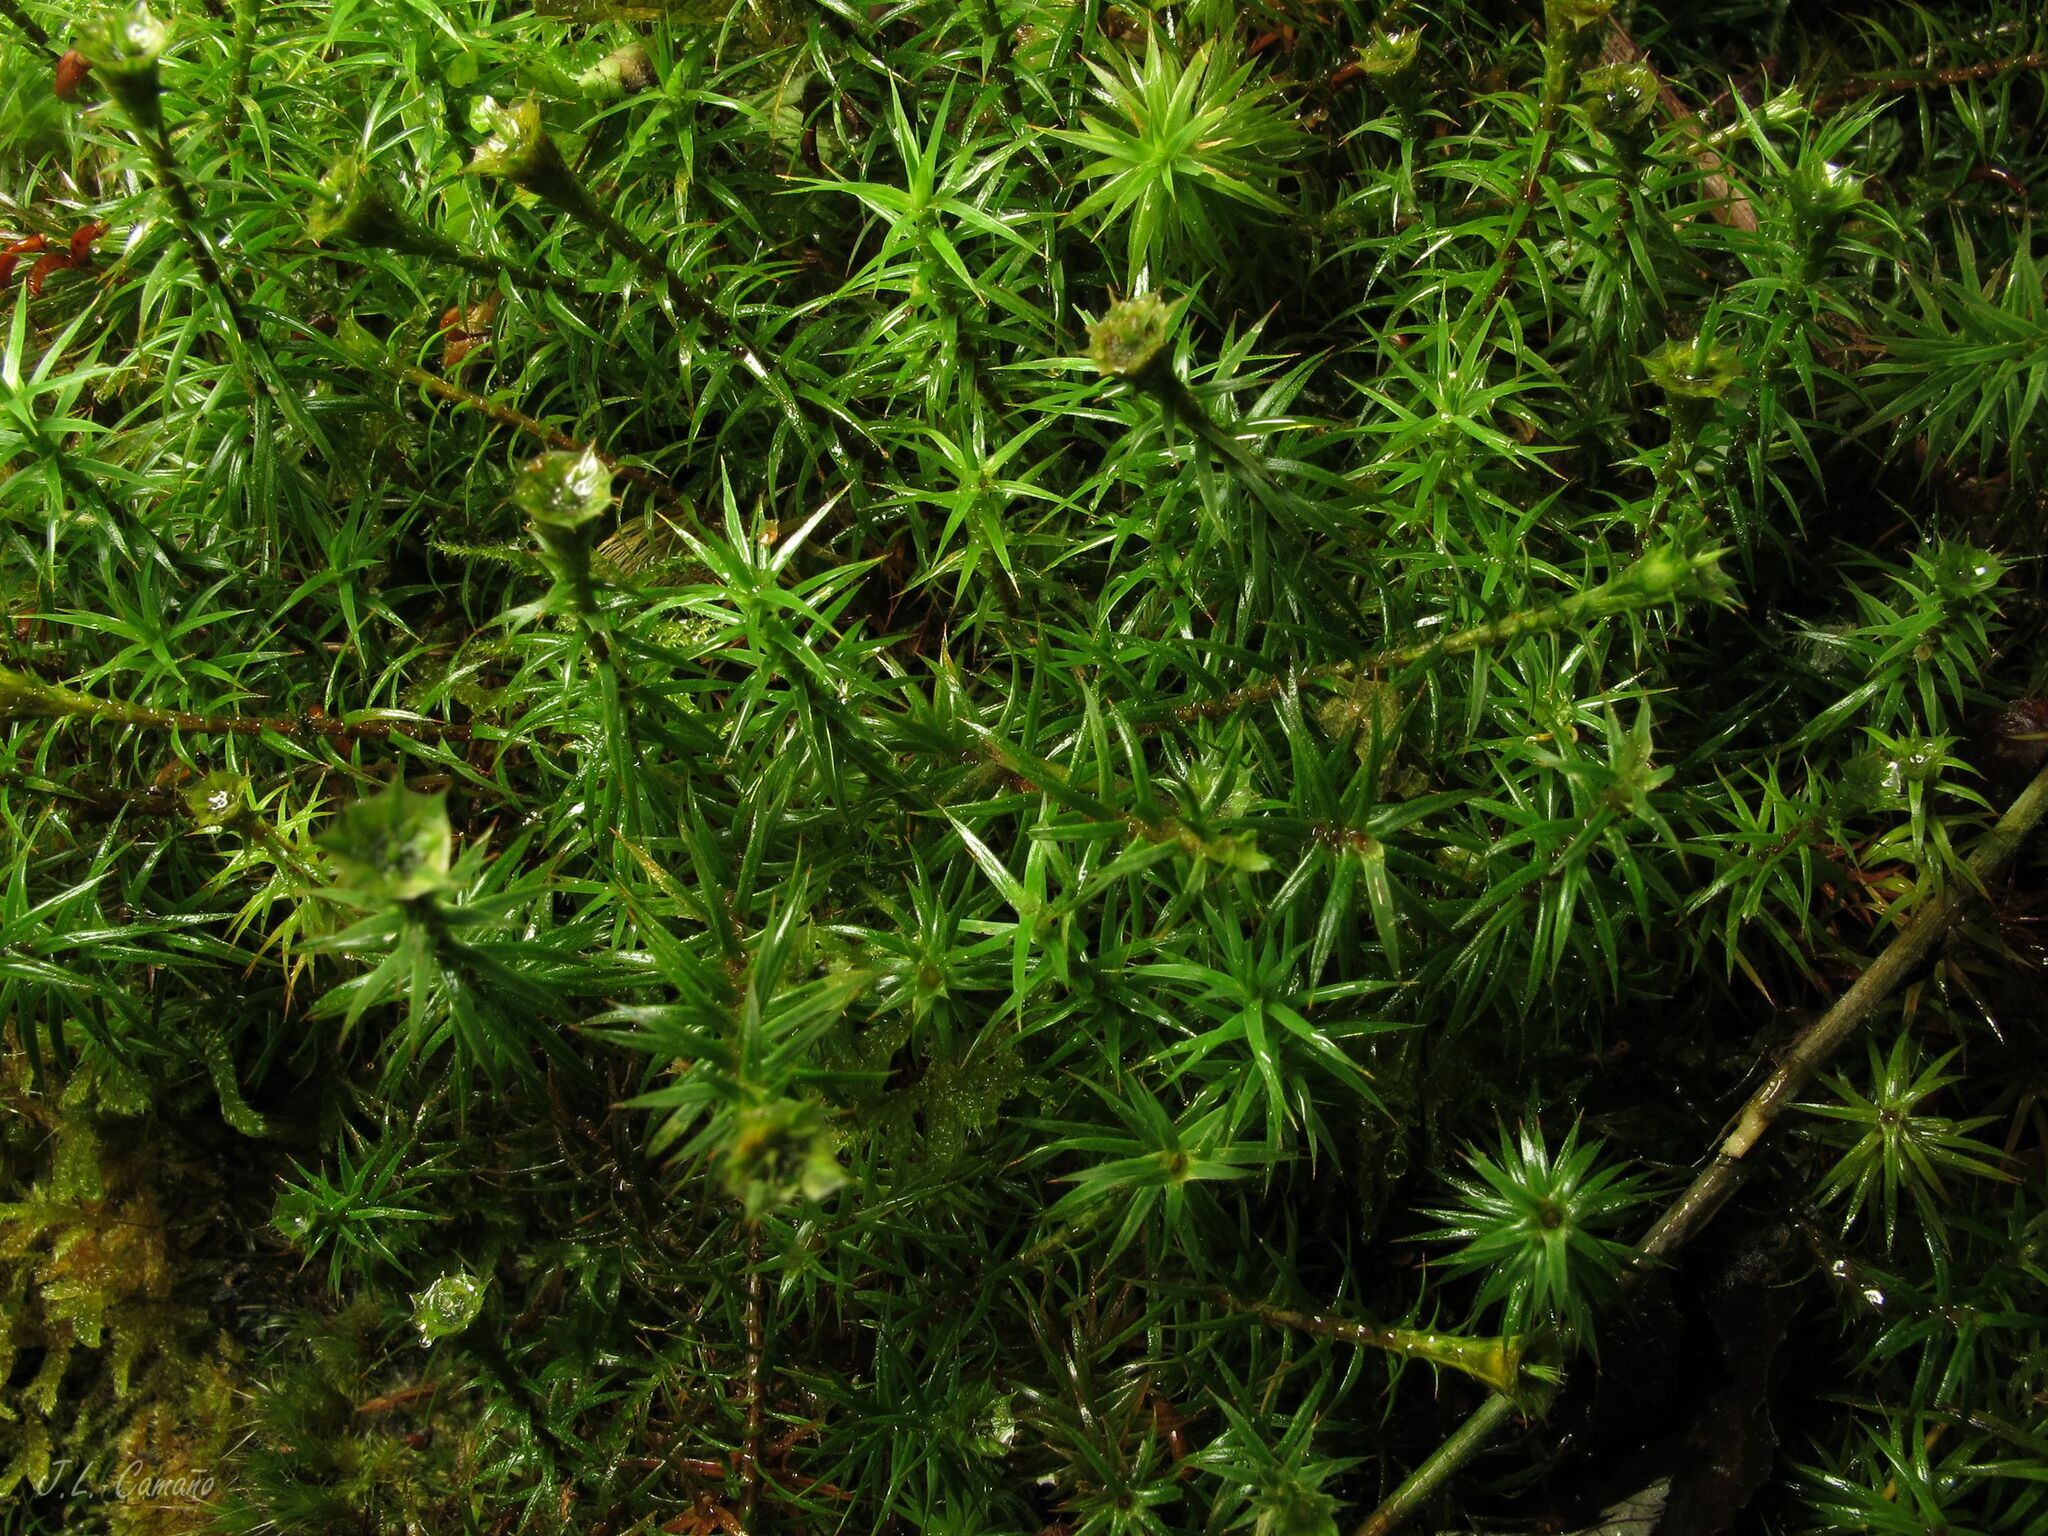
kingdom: Plantae
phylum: Bryophyta
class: Polytrichopsida
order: Polytrichales
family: Polytrichaceae
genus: Polytrichum
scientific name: Polytrichum formosum
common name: Bank haircap moss
